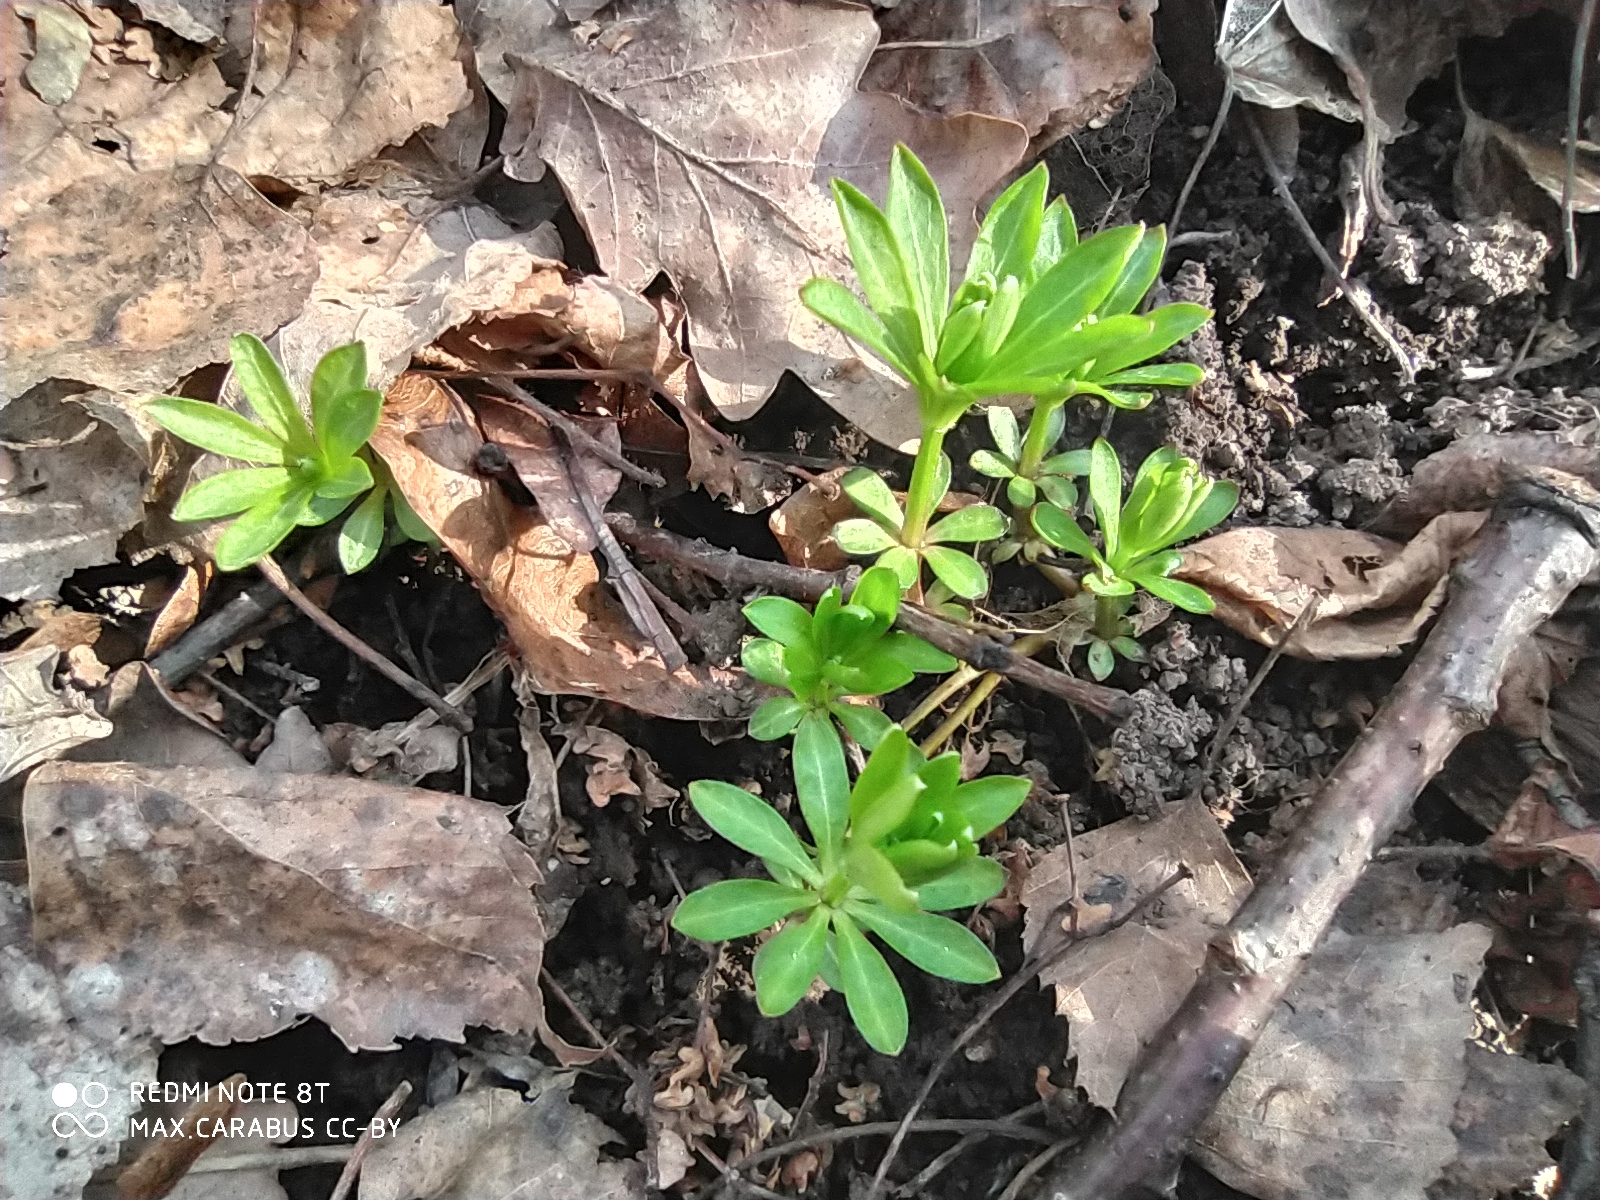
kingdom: Plantae
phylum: Tracheophyta
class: Magnoliopsida
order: Gentianales
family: Rubiaceae
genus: Galium
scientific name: Galium odoratum
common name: Sweet woodruff
